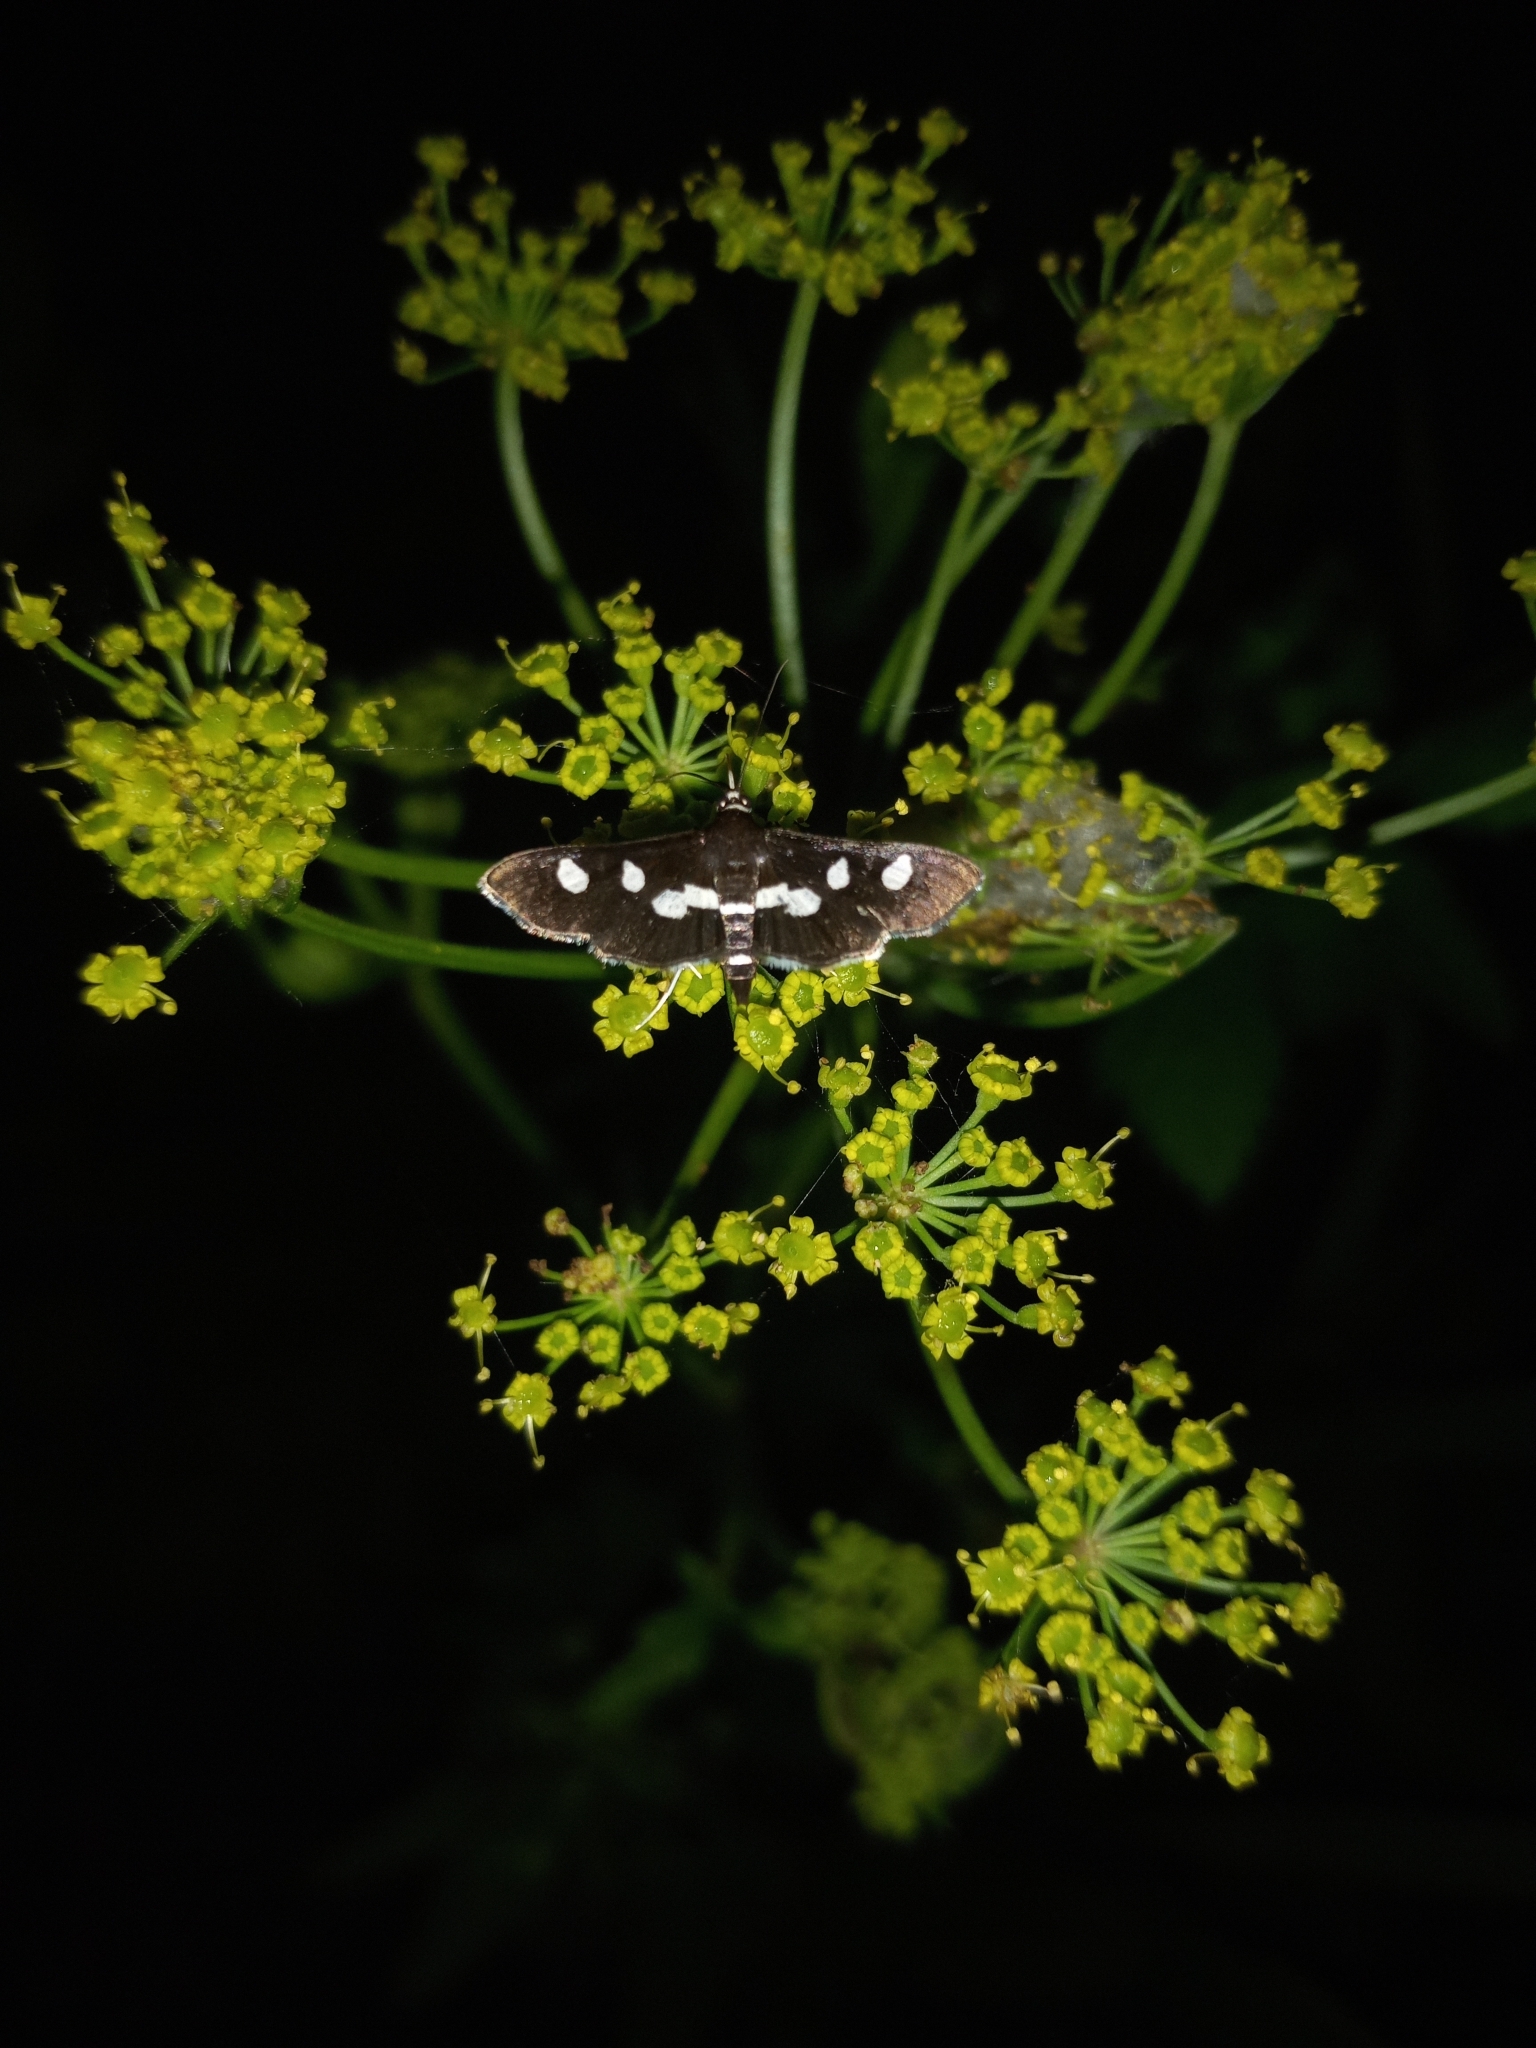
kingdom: Animalia
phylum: Arthropoda
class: Insecta
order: Lepidoptera
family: Crambidae
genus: Desmia
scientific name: Desmia
